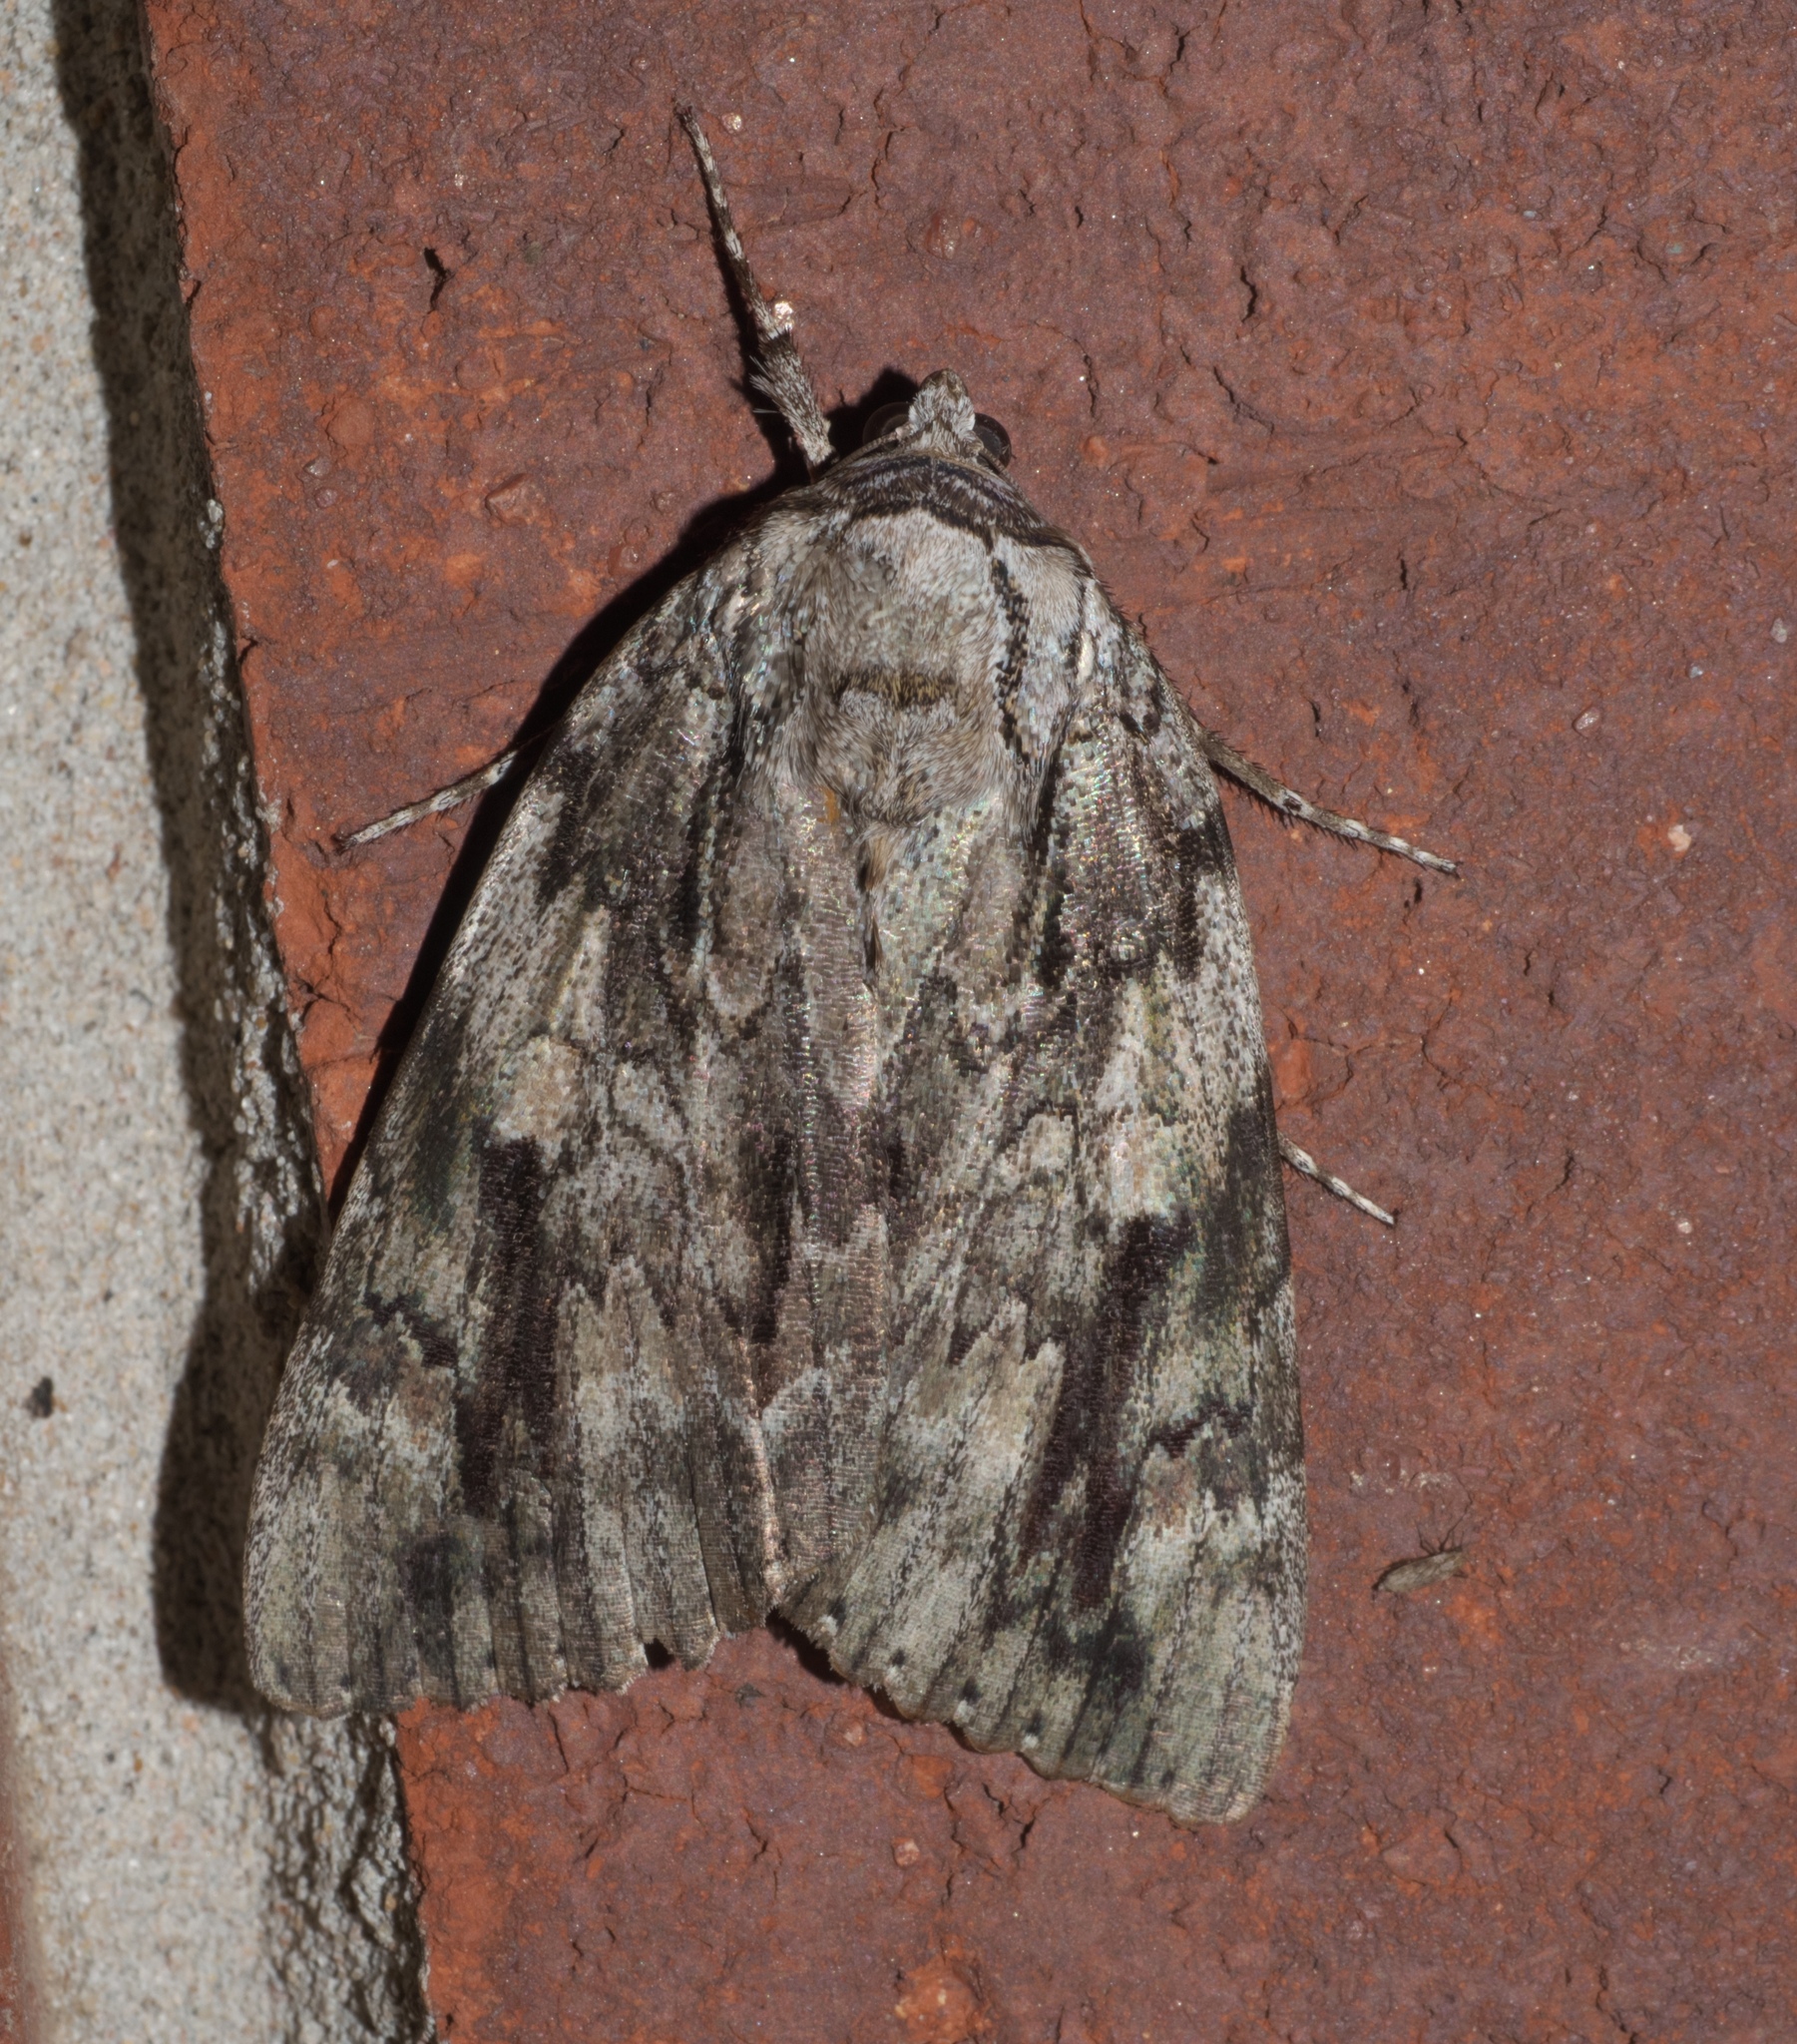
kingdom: Animalia
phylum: Arthropoda
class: Insecta
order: Lepidoptera
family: Erebidae
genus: Catocala
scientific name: Catocala maestosa
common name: Sad underwing
